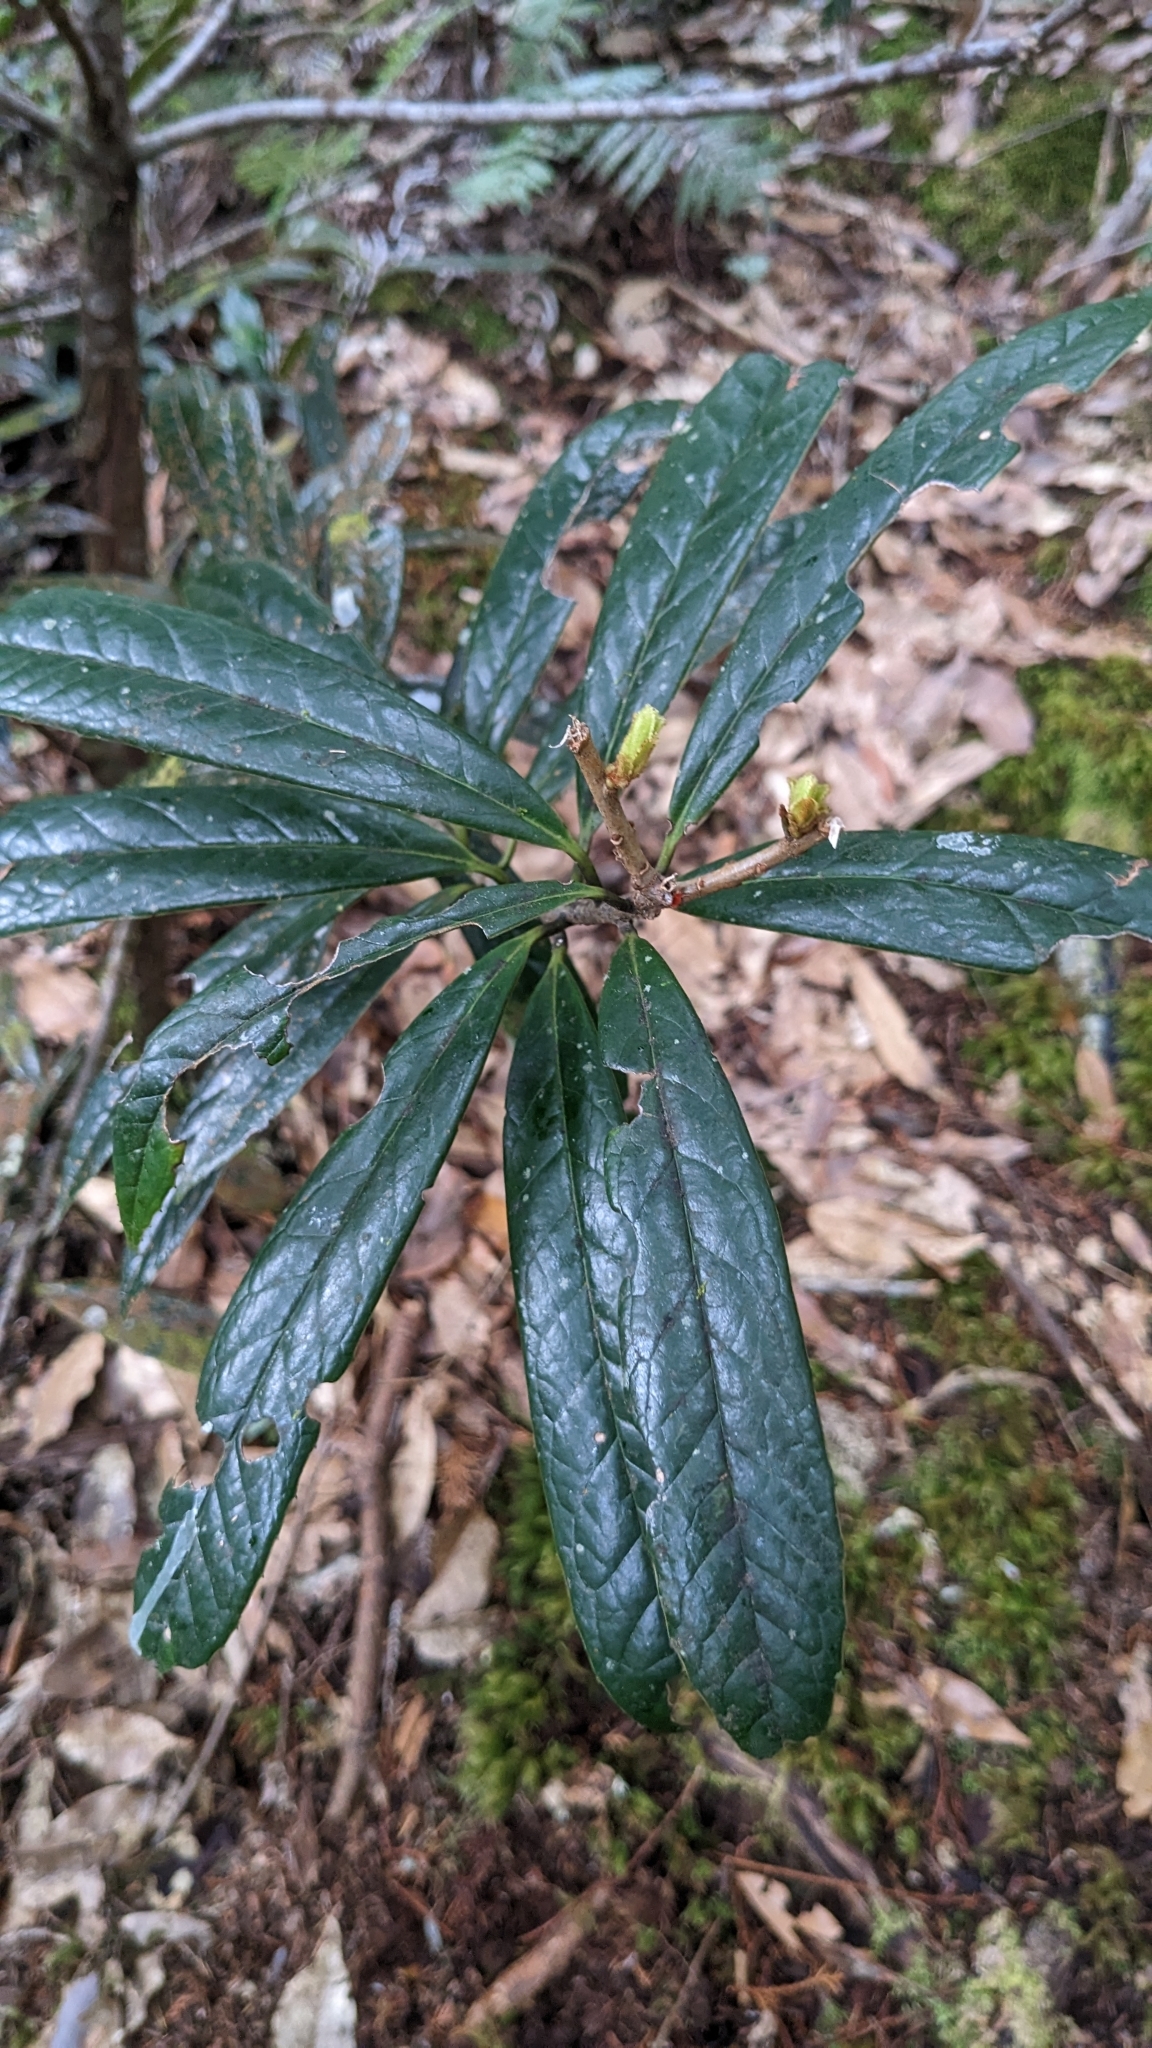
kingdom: Plantae
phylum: Tracheophyta
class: Magnoliopsida
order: Ericales
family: Symplocaceae
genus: Symplocos
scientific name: Symplocos stellaris
